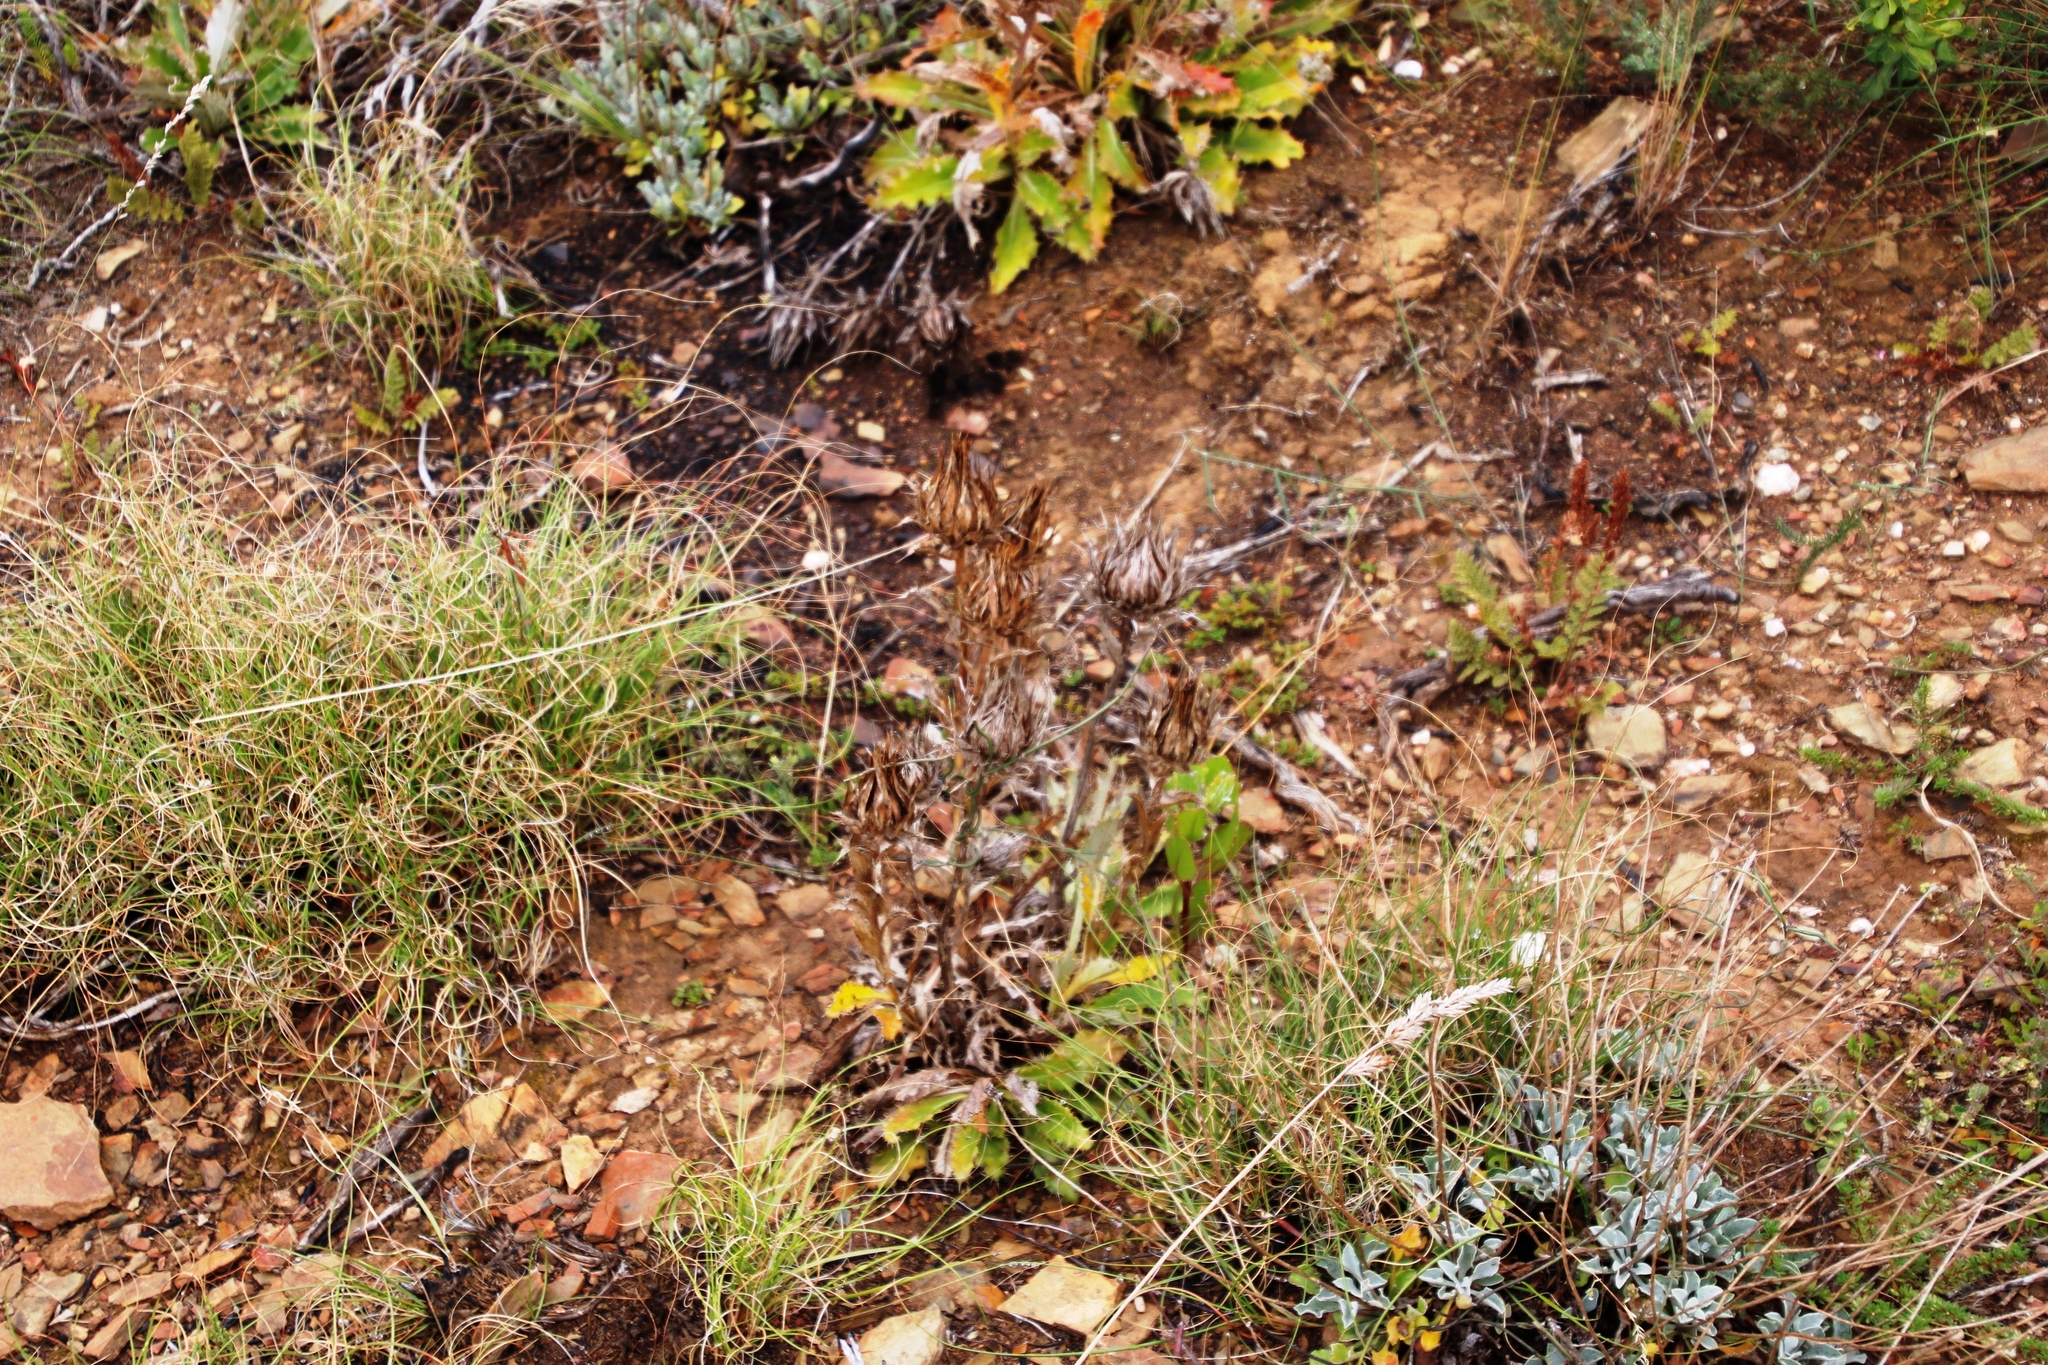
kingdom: Plantae
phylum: Tracheophyta
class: Magnoliopsida
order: Asterales
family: Asteraceae
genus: Berkheya
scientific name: Berkheya armata
